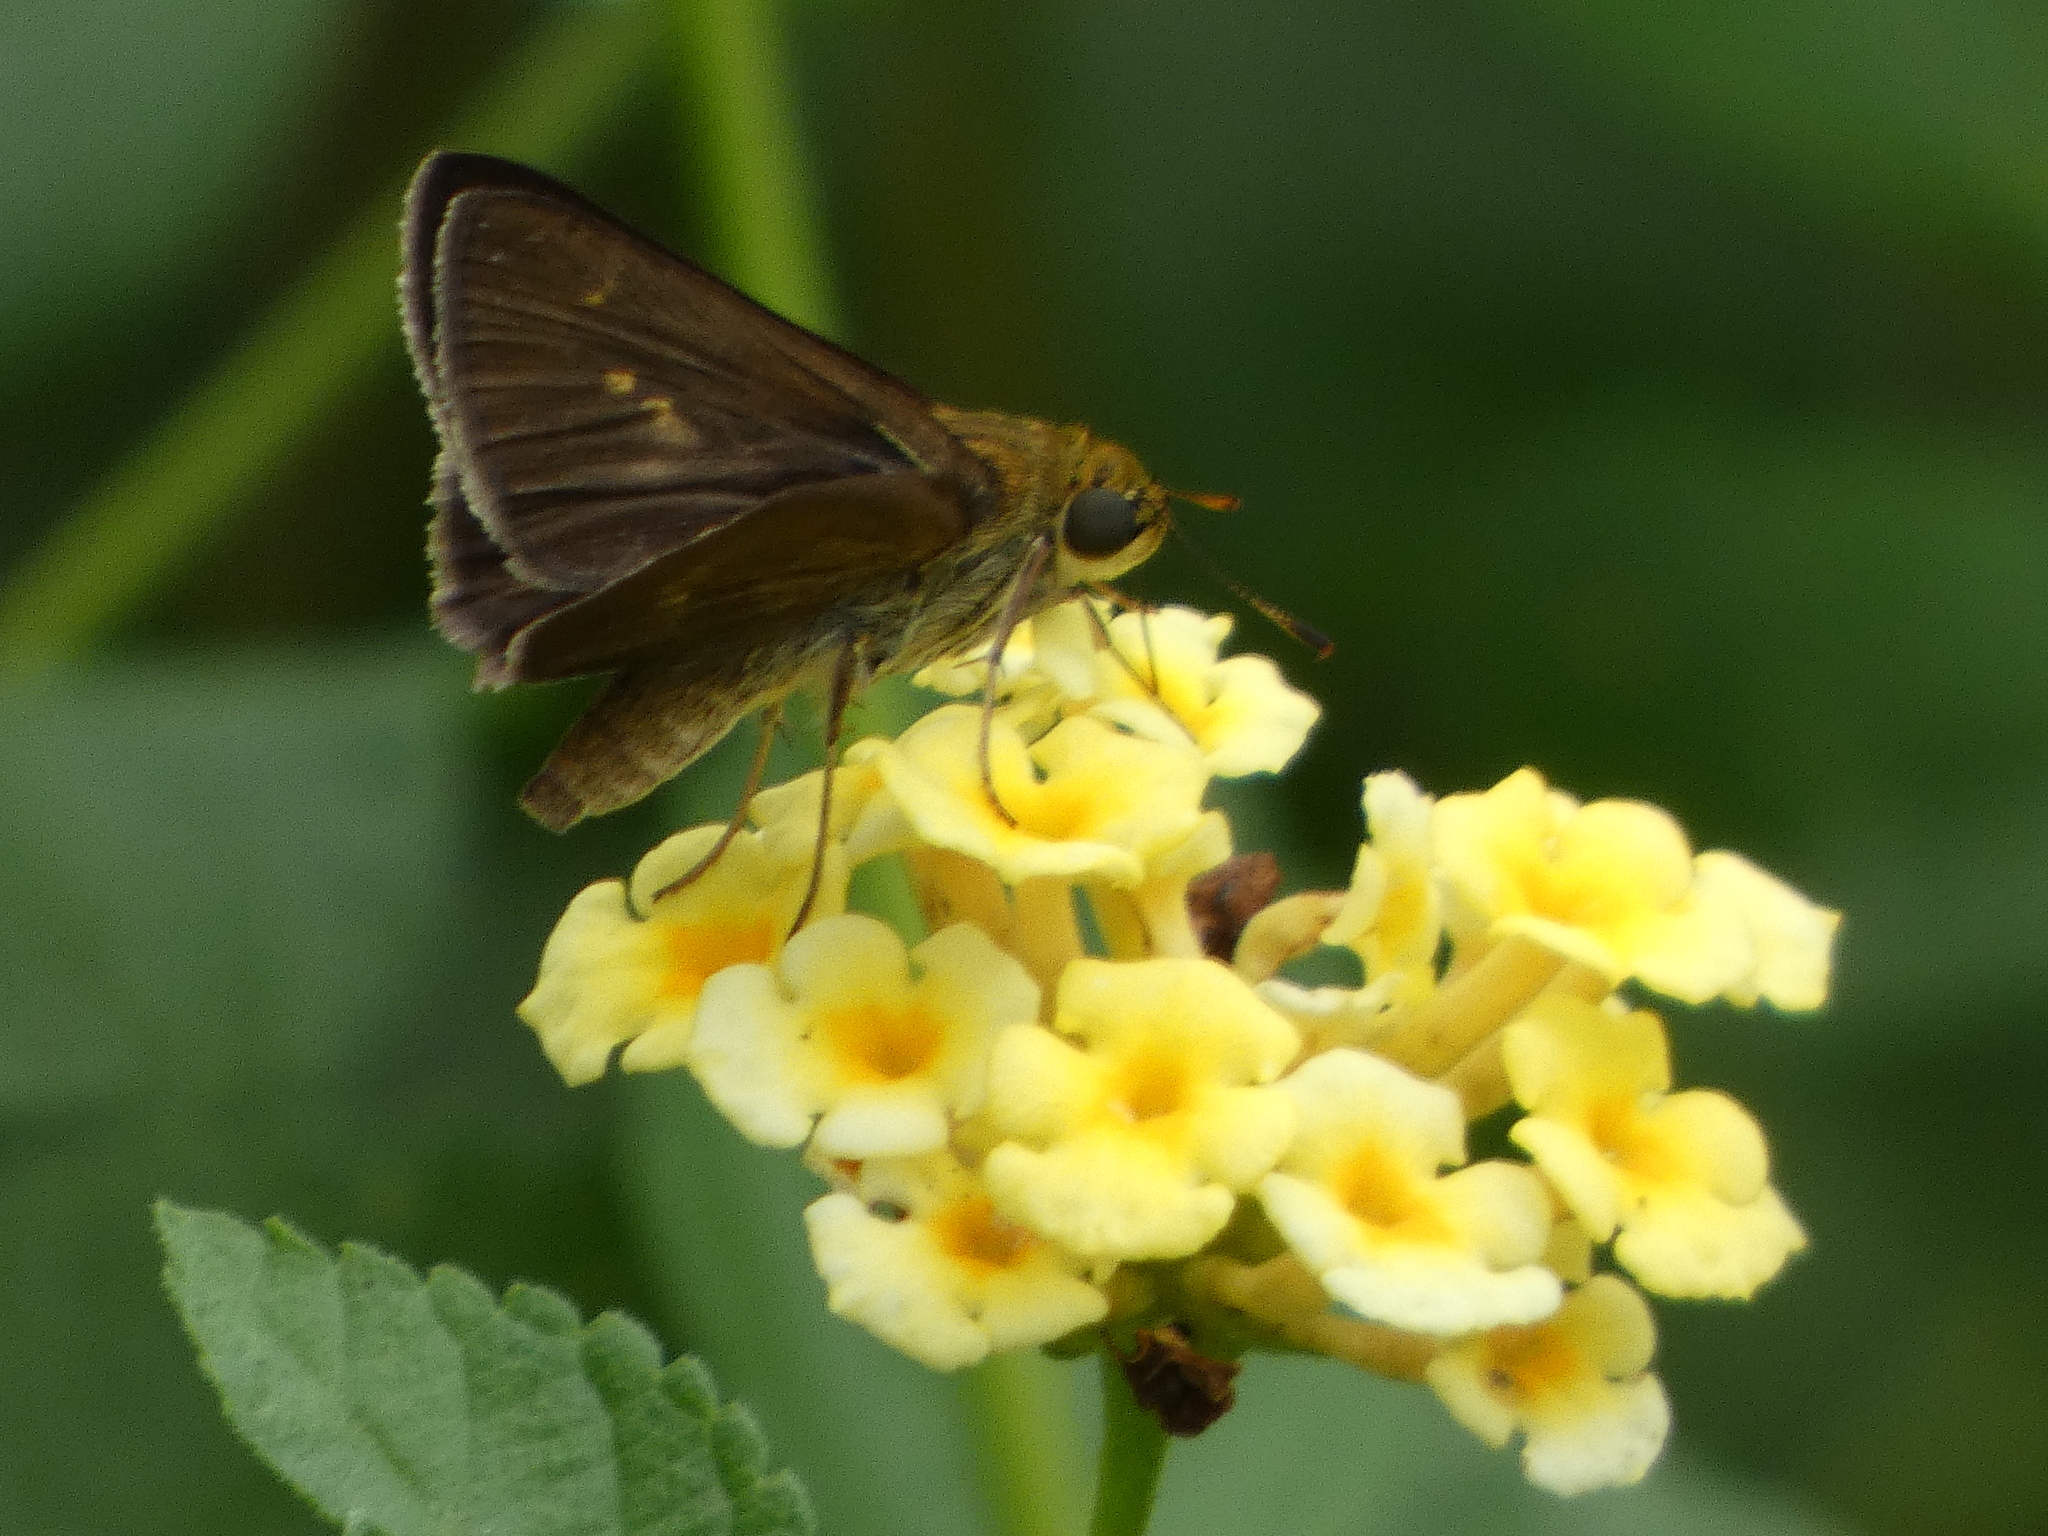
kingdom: Animalia
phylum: Arthropoda
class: Insecta
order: Lepidoptera
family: Hesperiidae
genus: Euphyes
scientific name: Euphyes vestris
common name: Dun skipper
